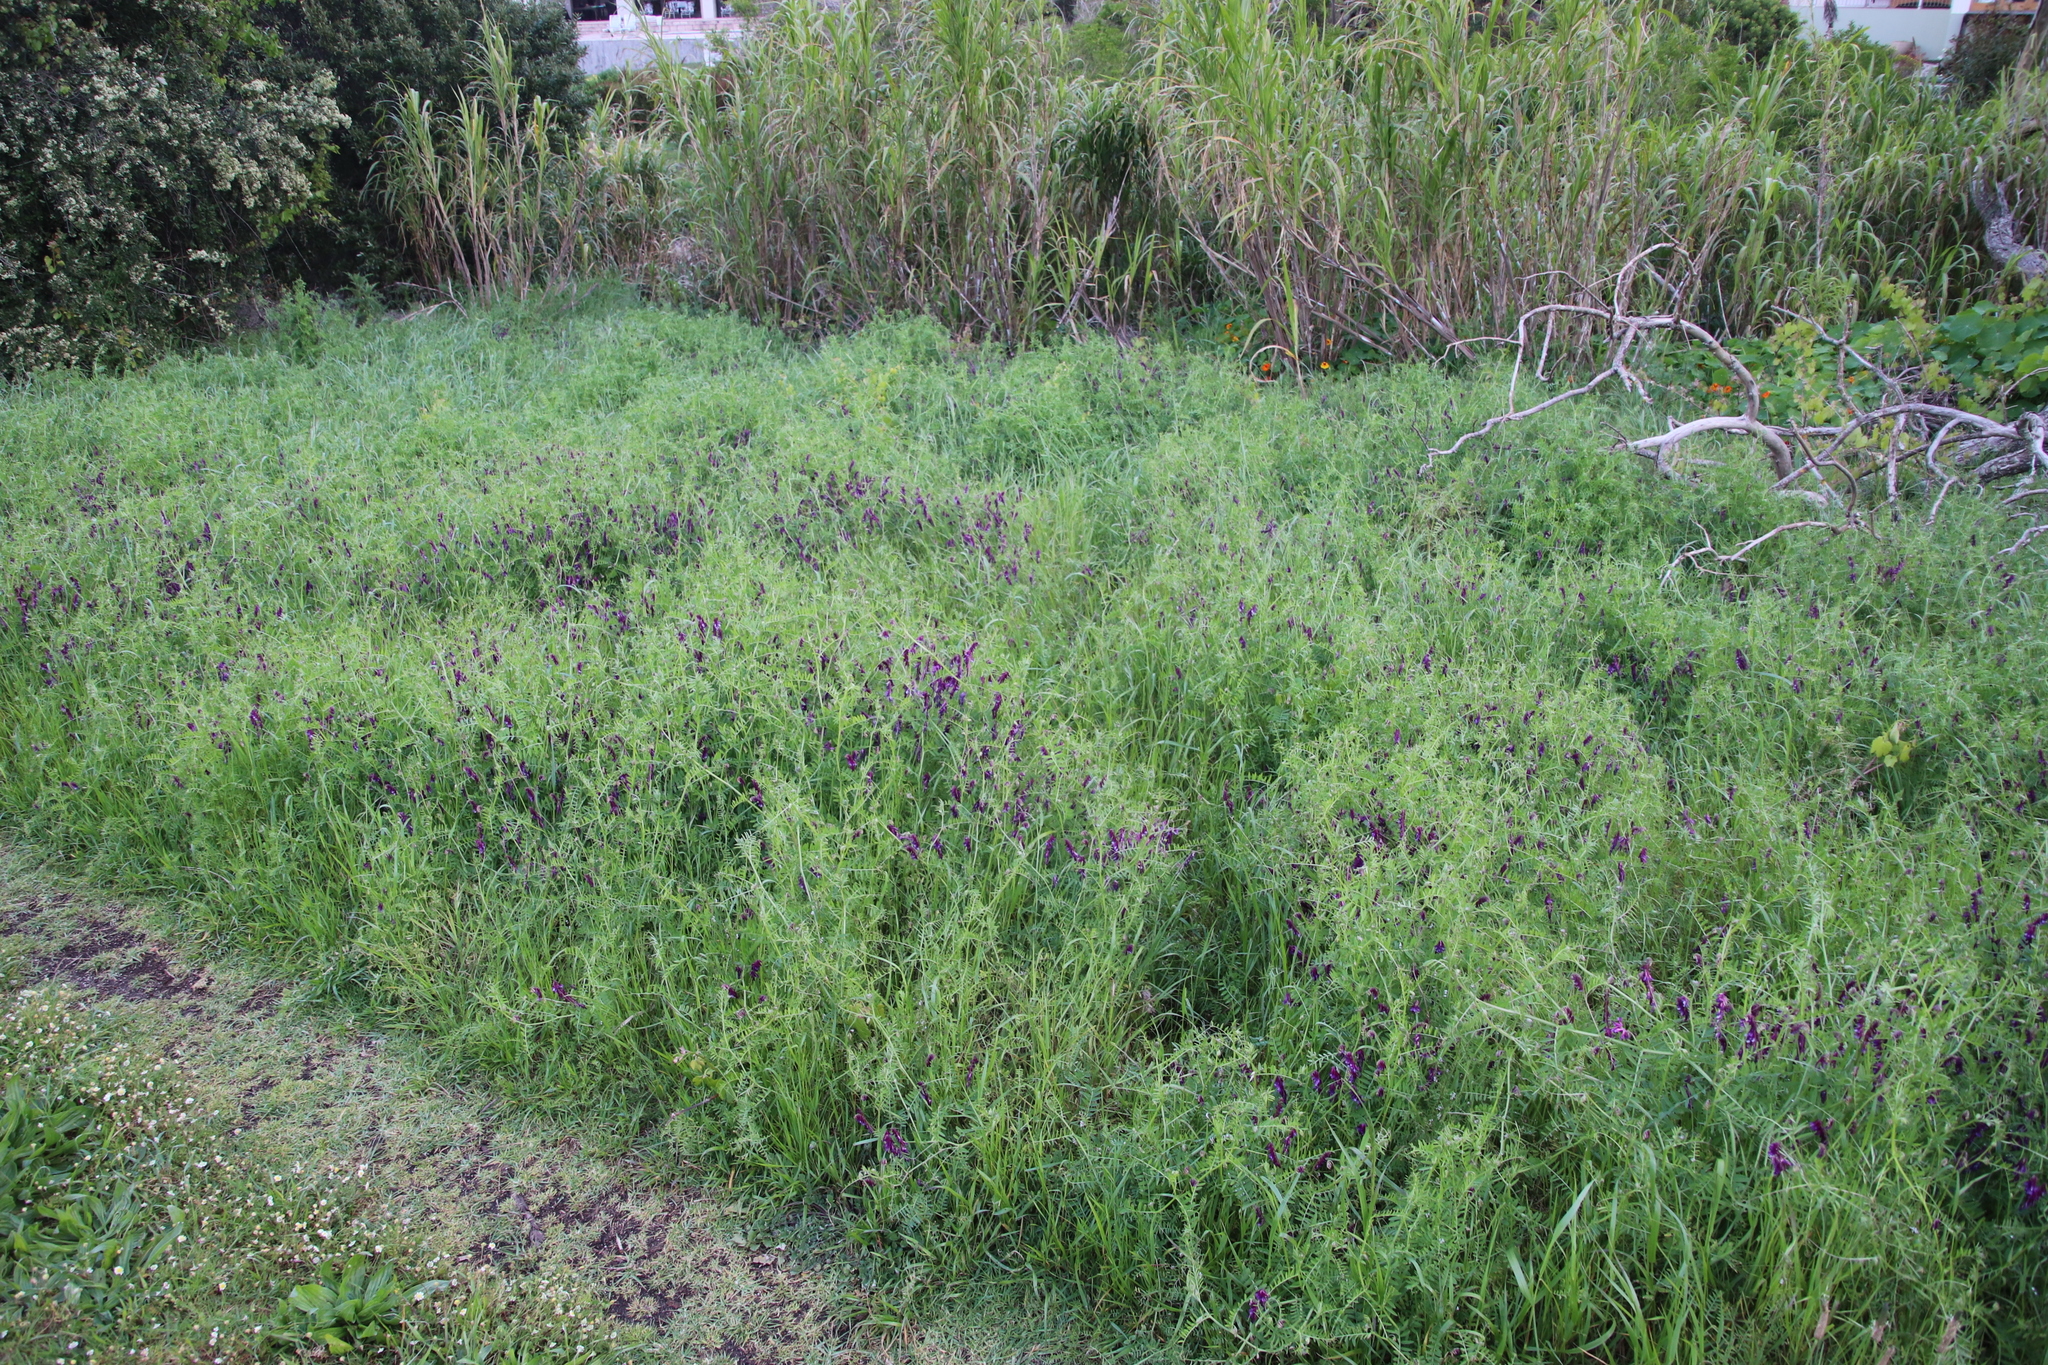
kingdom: Plantae
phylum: Tracheophyta
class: Magnoliopsida
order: Fabales
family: Fabaceae
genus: Vicia
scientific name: Vicia eriocarpa
